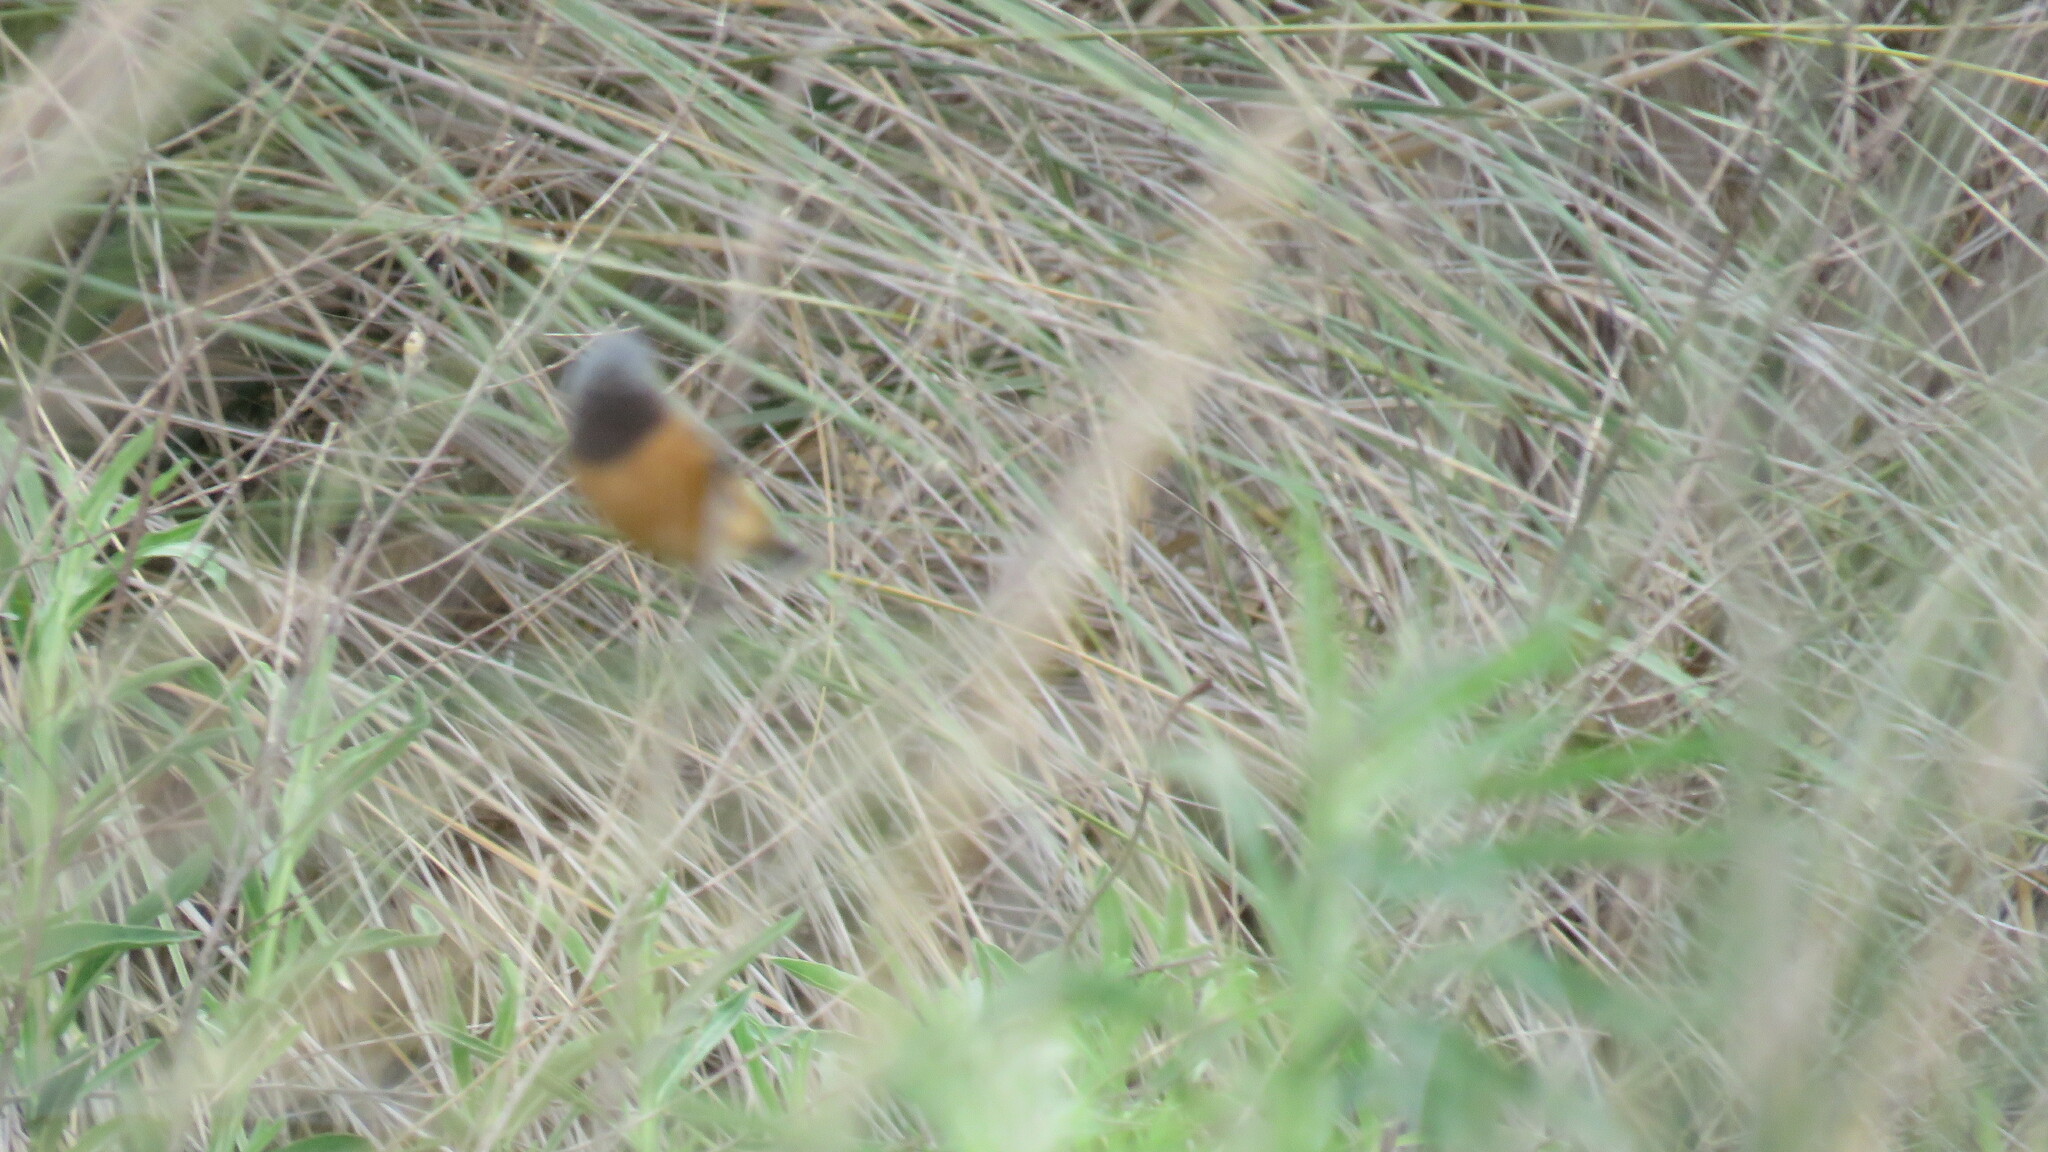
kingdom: Animalia
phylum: Chordata
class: Aves
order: Passeriformes
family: Thraupidae
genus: Sporophila
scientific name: Sporophila ruficollis
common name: Dark-throated seedeater
